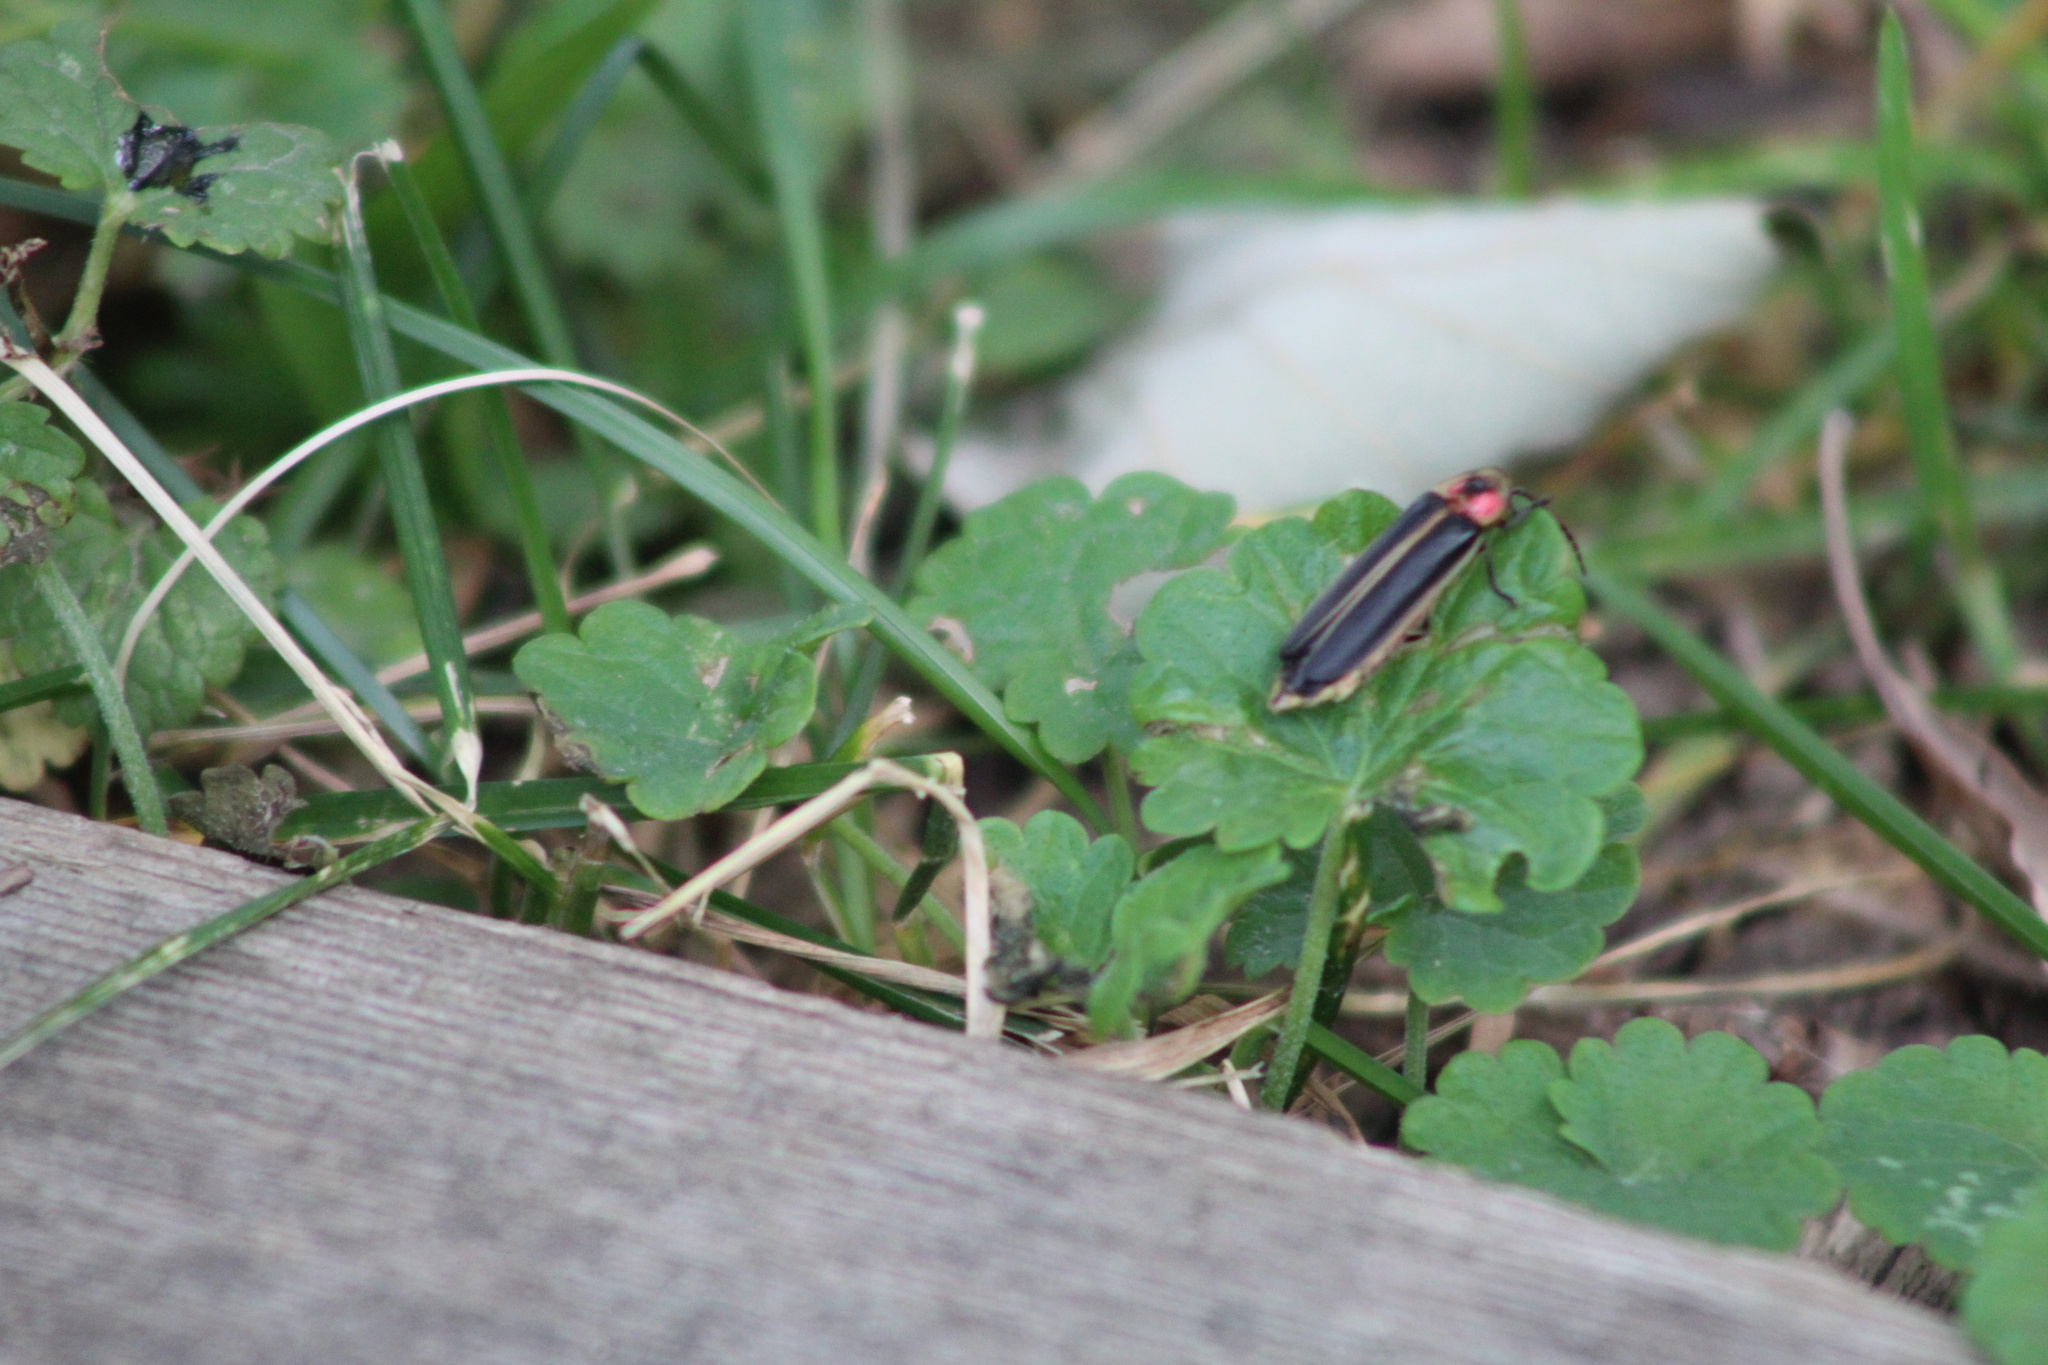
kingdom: Animalia
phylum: Arthropoda
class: Insecta
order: Coleoptera
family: Lampyridae
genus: Photinus
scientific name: Photinus pyralis
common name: Big dipper firefly
